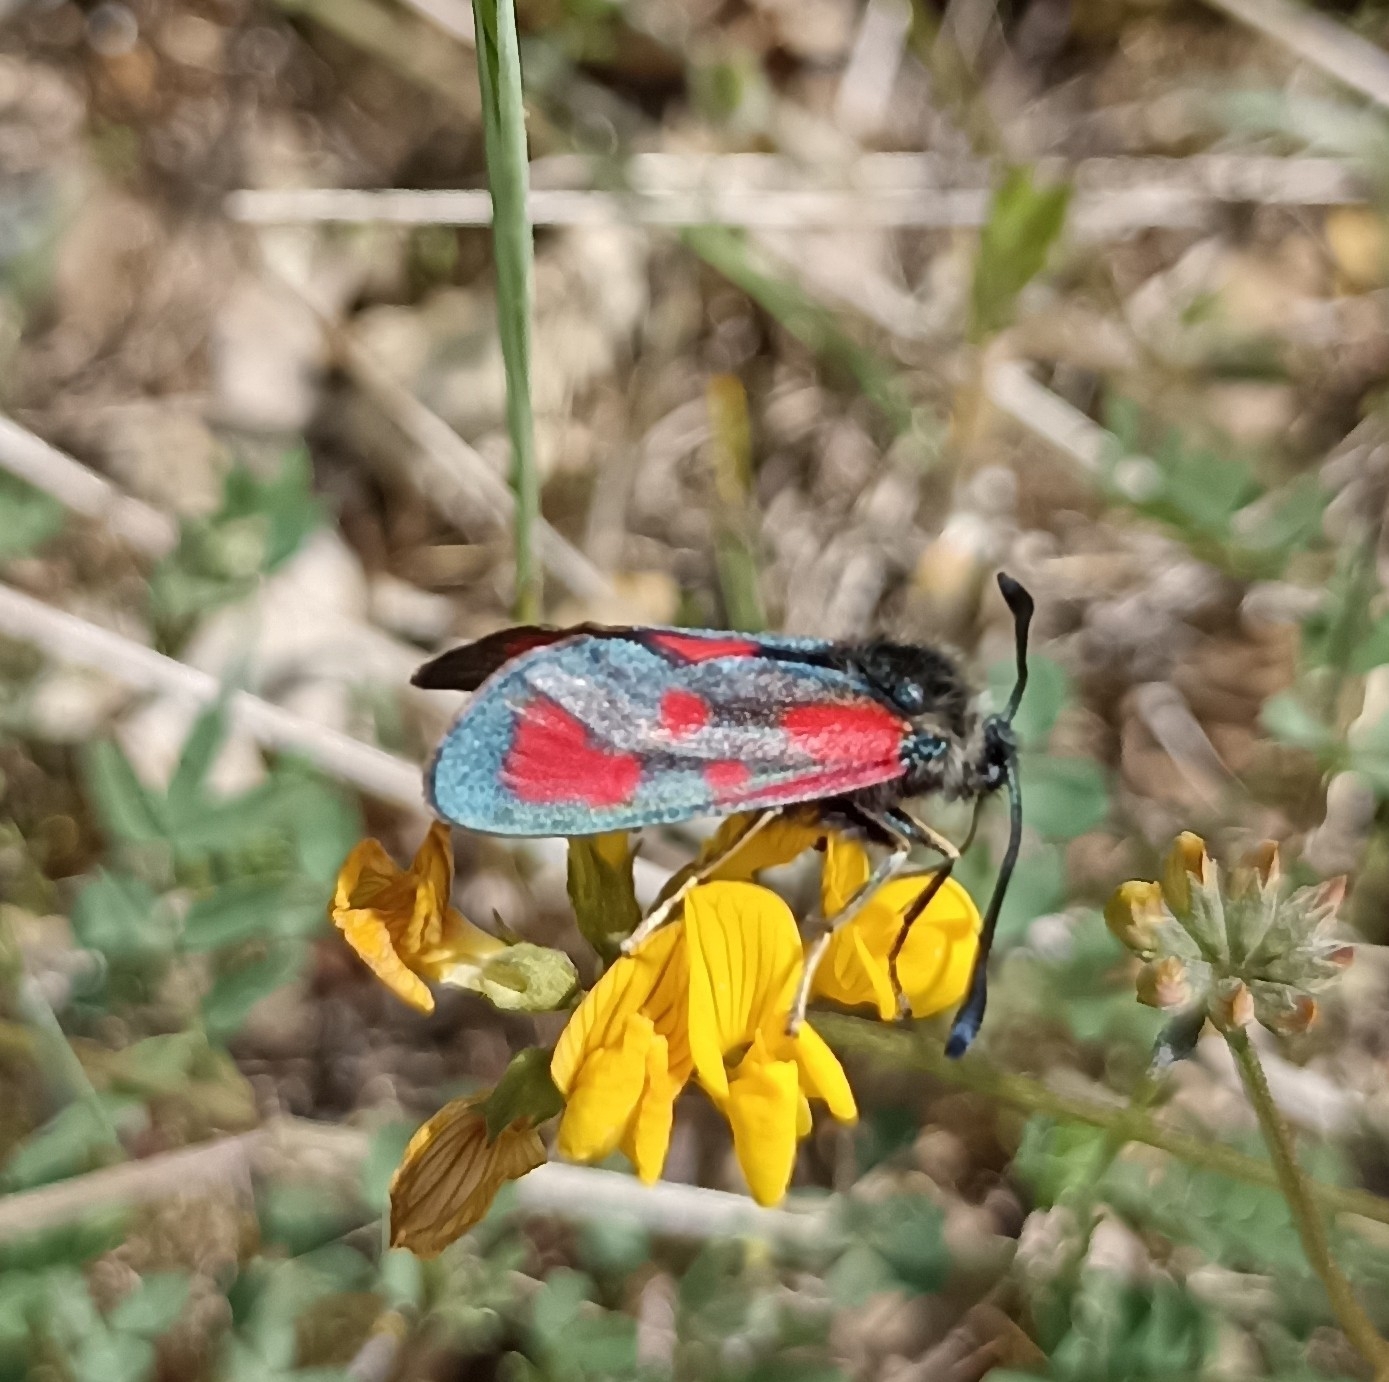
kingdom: Animalia
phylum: Arthropoda
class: Insecta
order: Lepidoptera
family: Zygaenidae
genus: Zygaena
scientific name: Zygaena loti
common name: Slender scotch burnet
